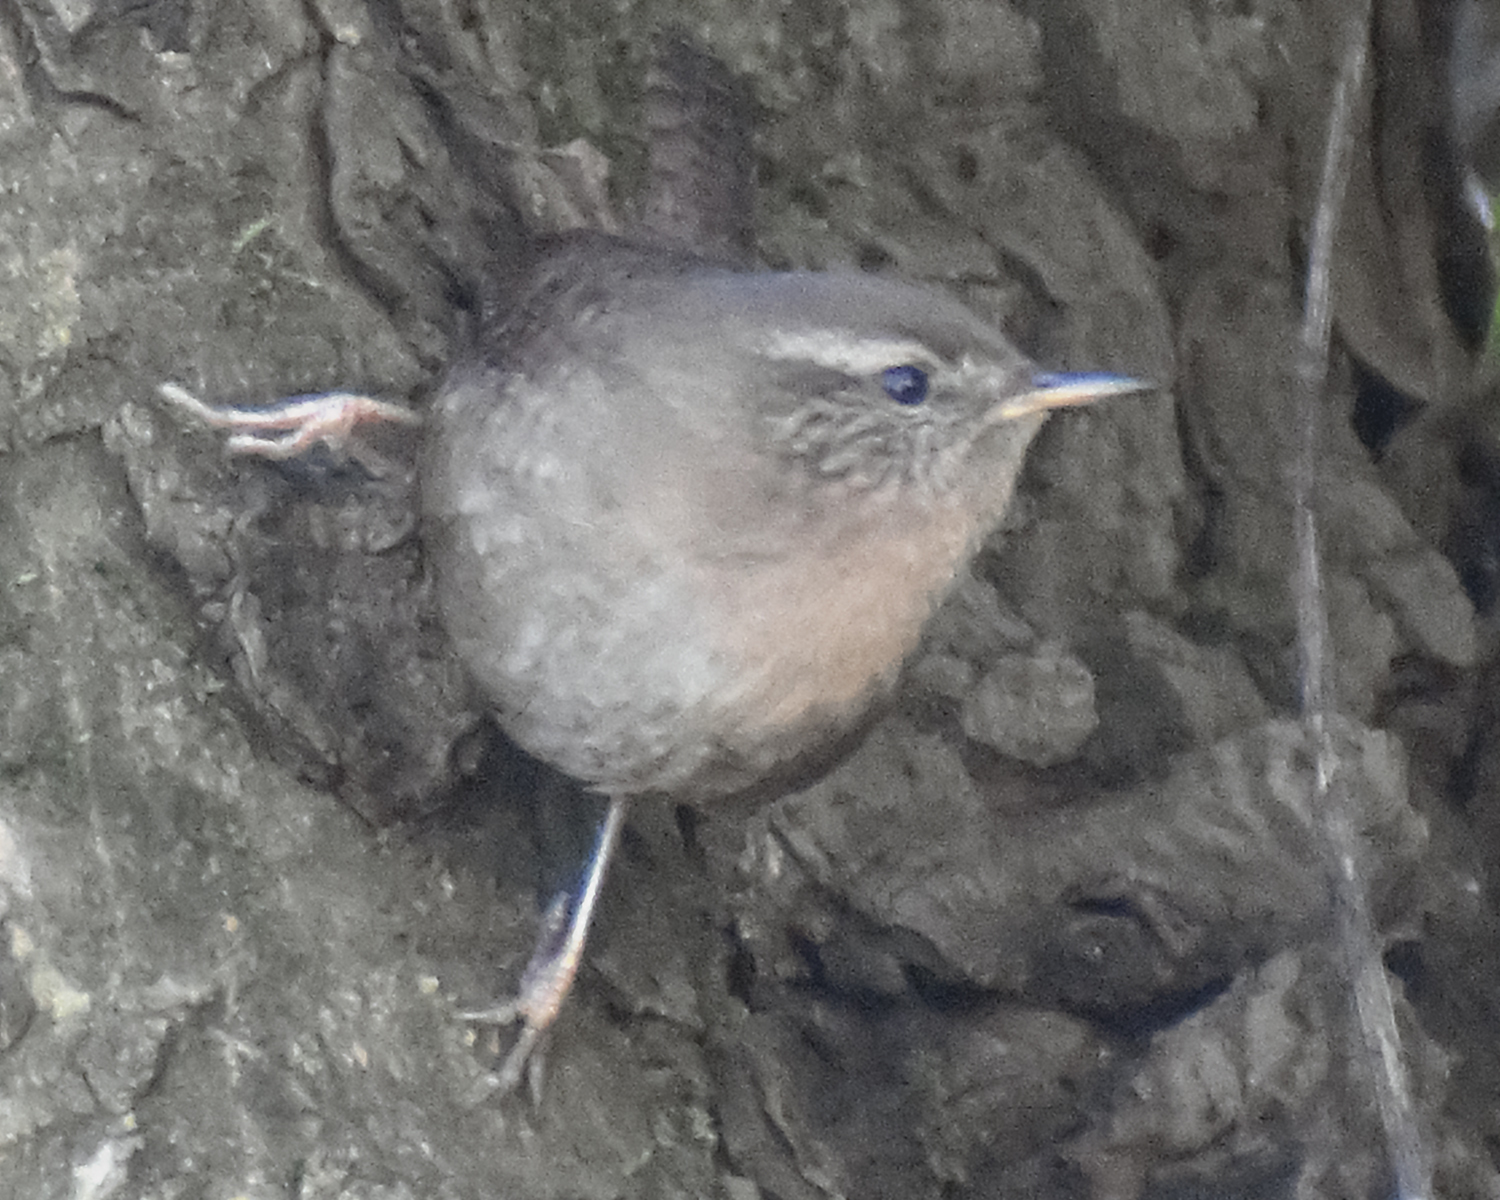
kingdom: Animalia
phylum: Chordata
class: Aves
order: Passeriformes
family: Troglodytidae
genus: Troglodytes
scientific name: Troglodytes troglodytes
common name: Eurasian wren
